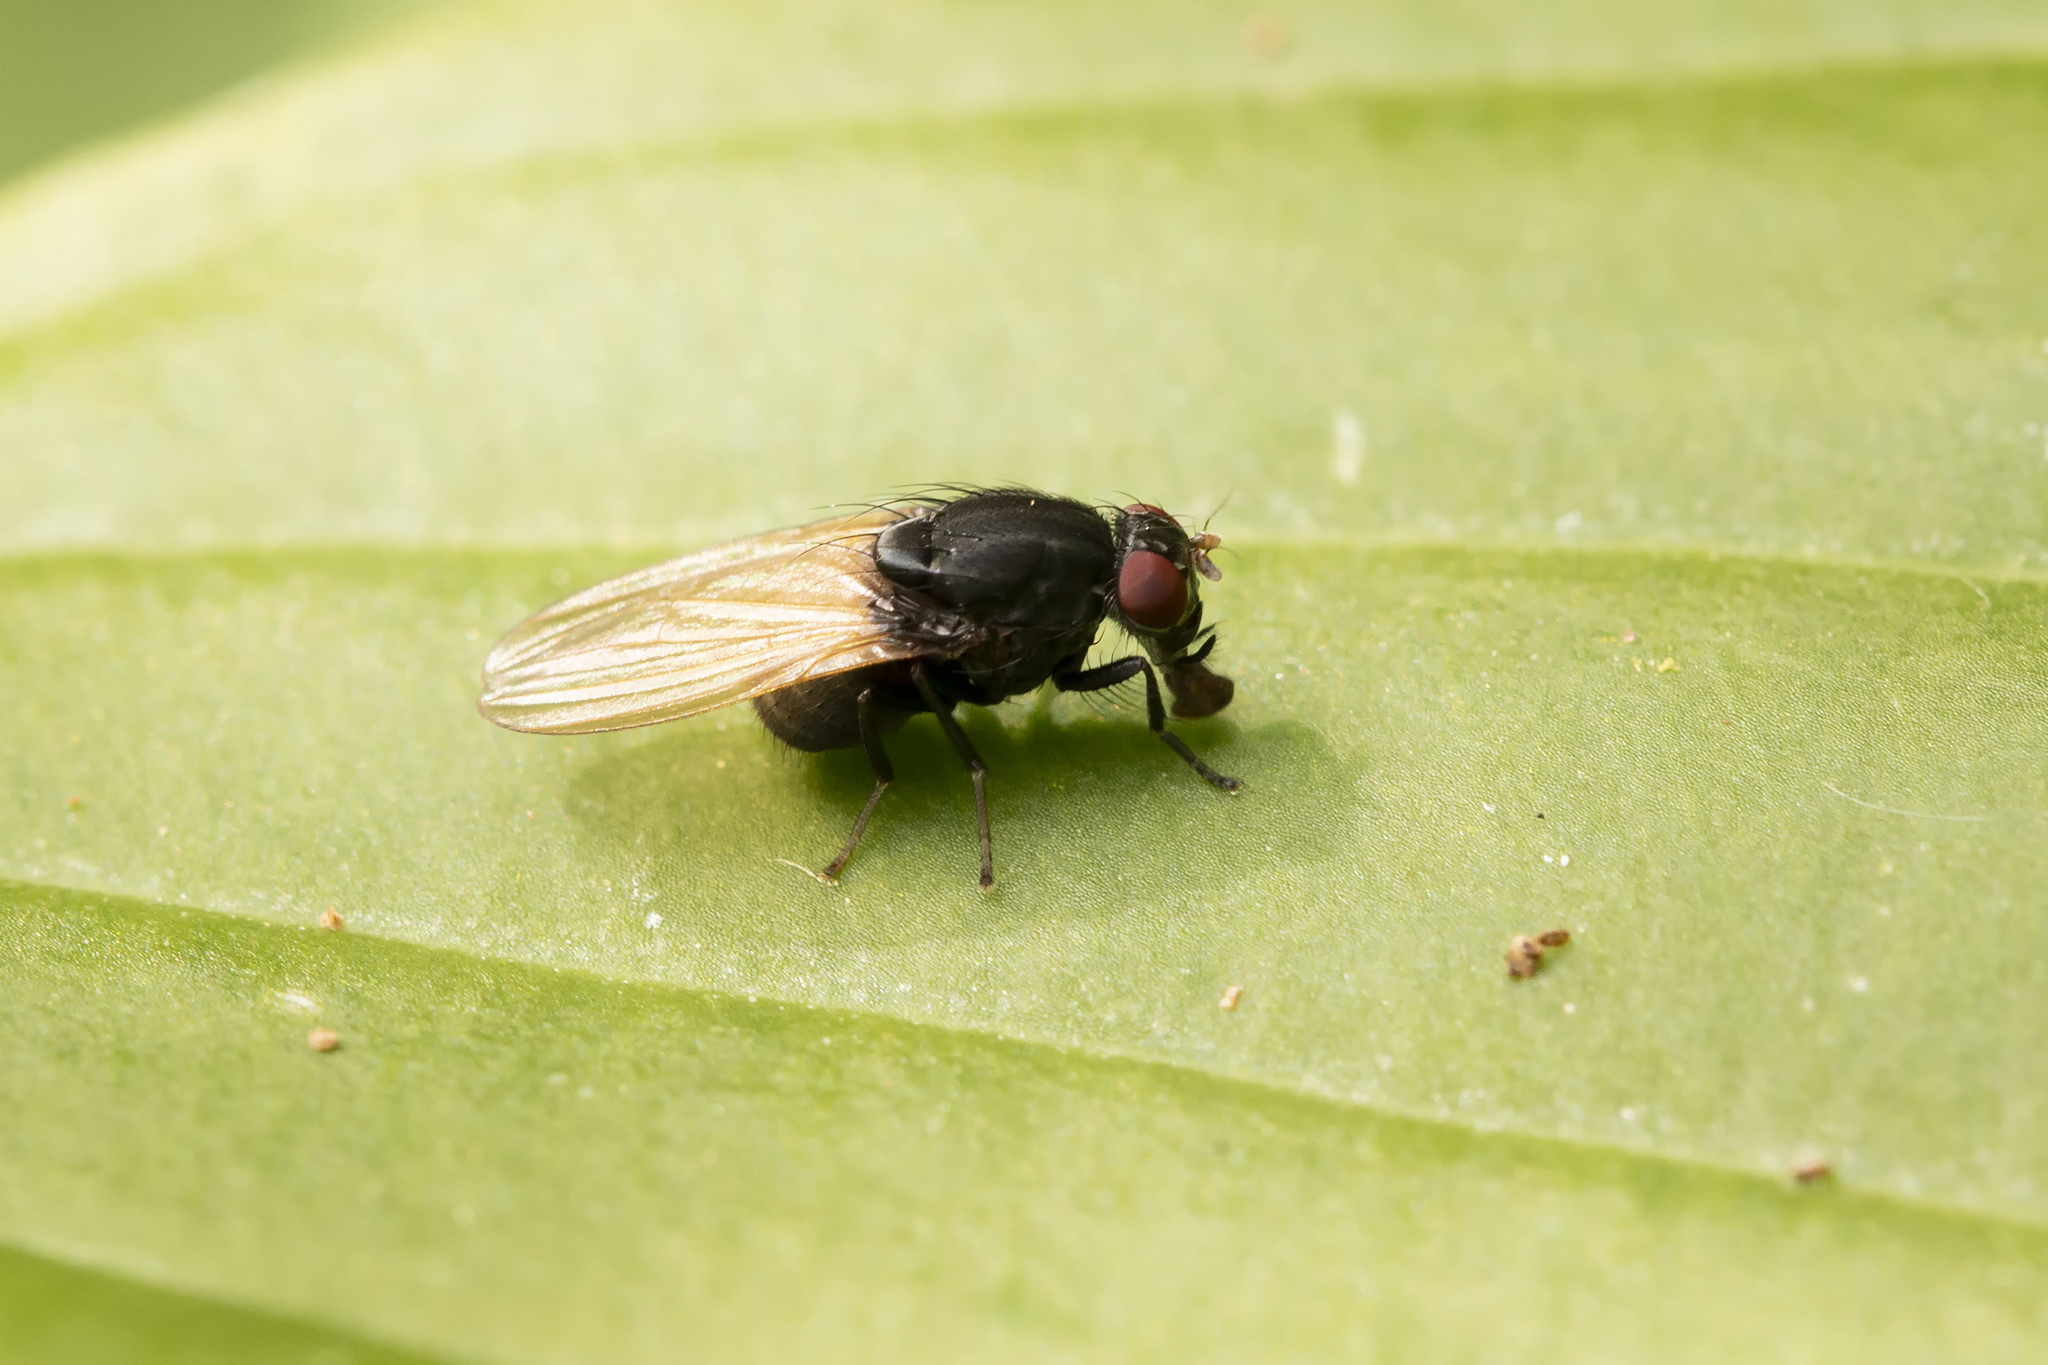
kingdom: Animalia
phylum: Arthropoda
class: Insecta
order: Diptera
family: Lauxaniidae
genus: Minettia
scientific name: Minettia longipennis
